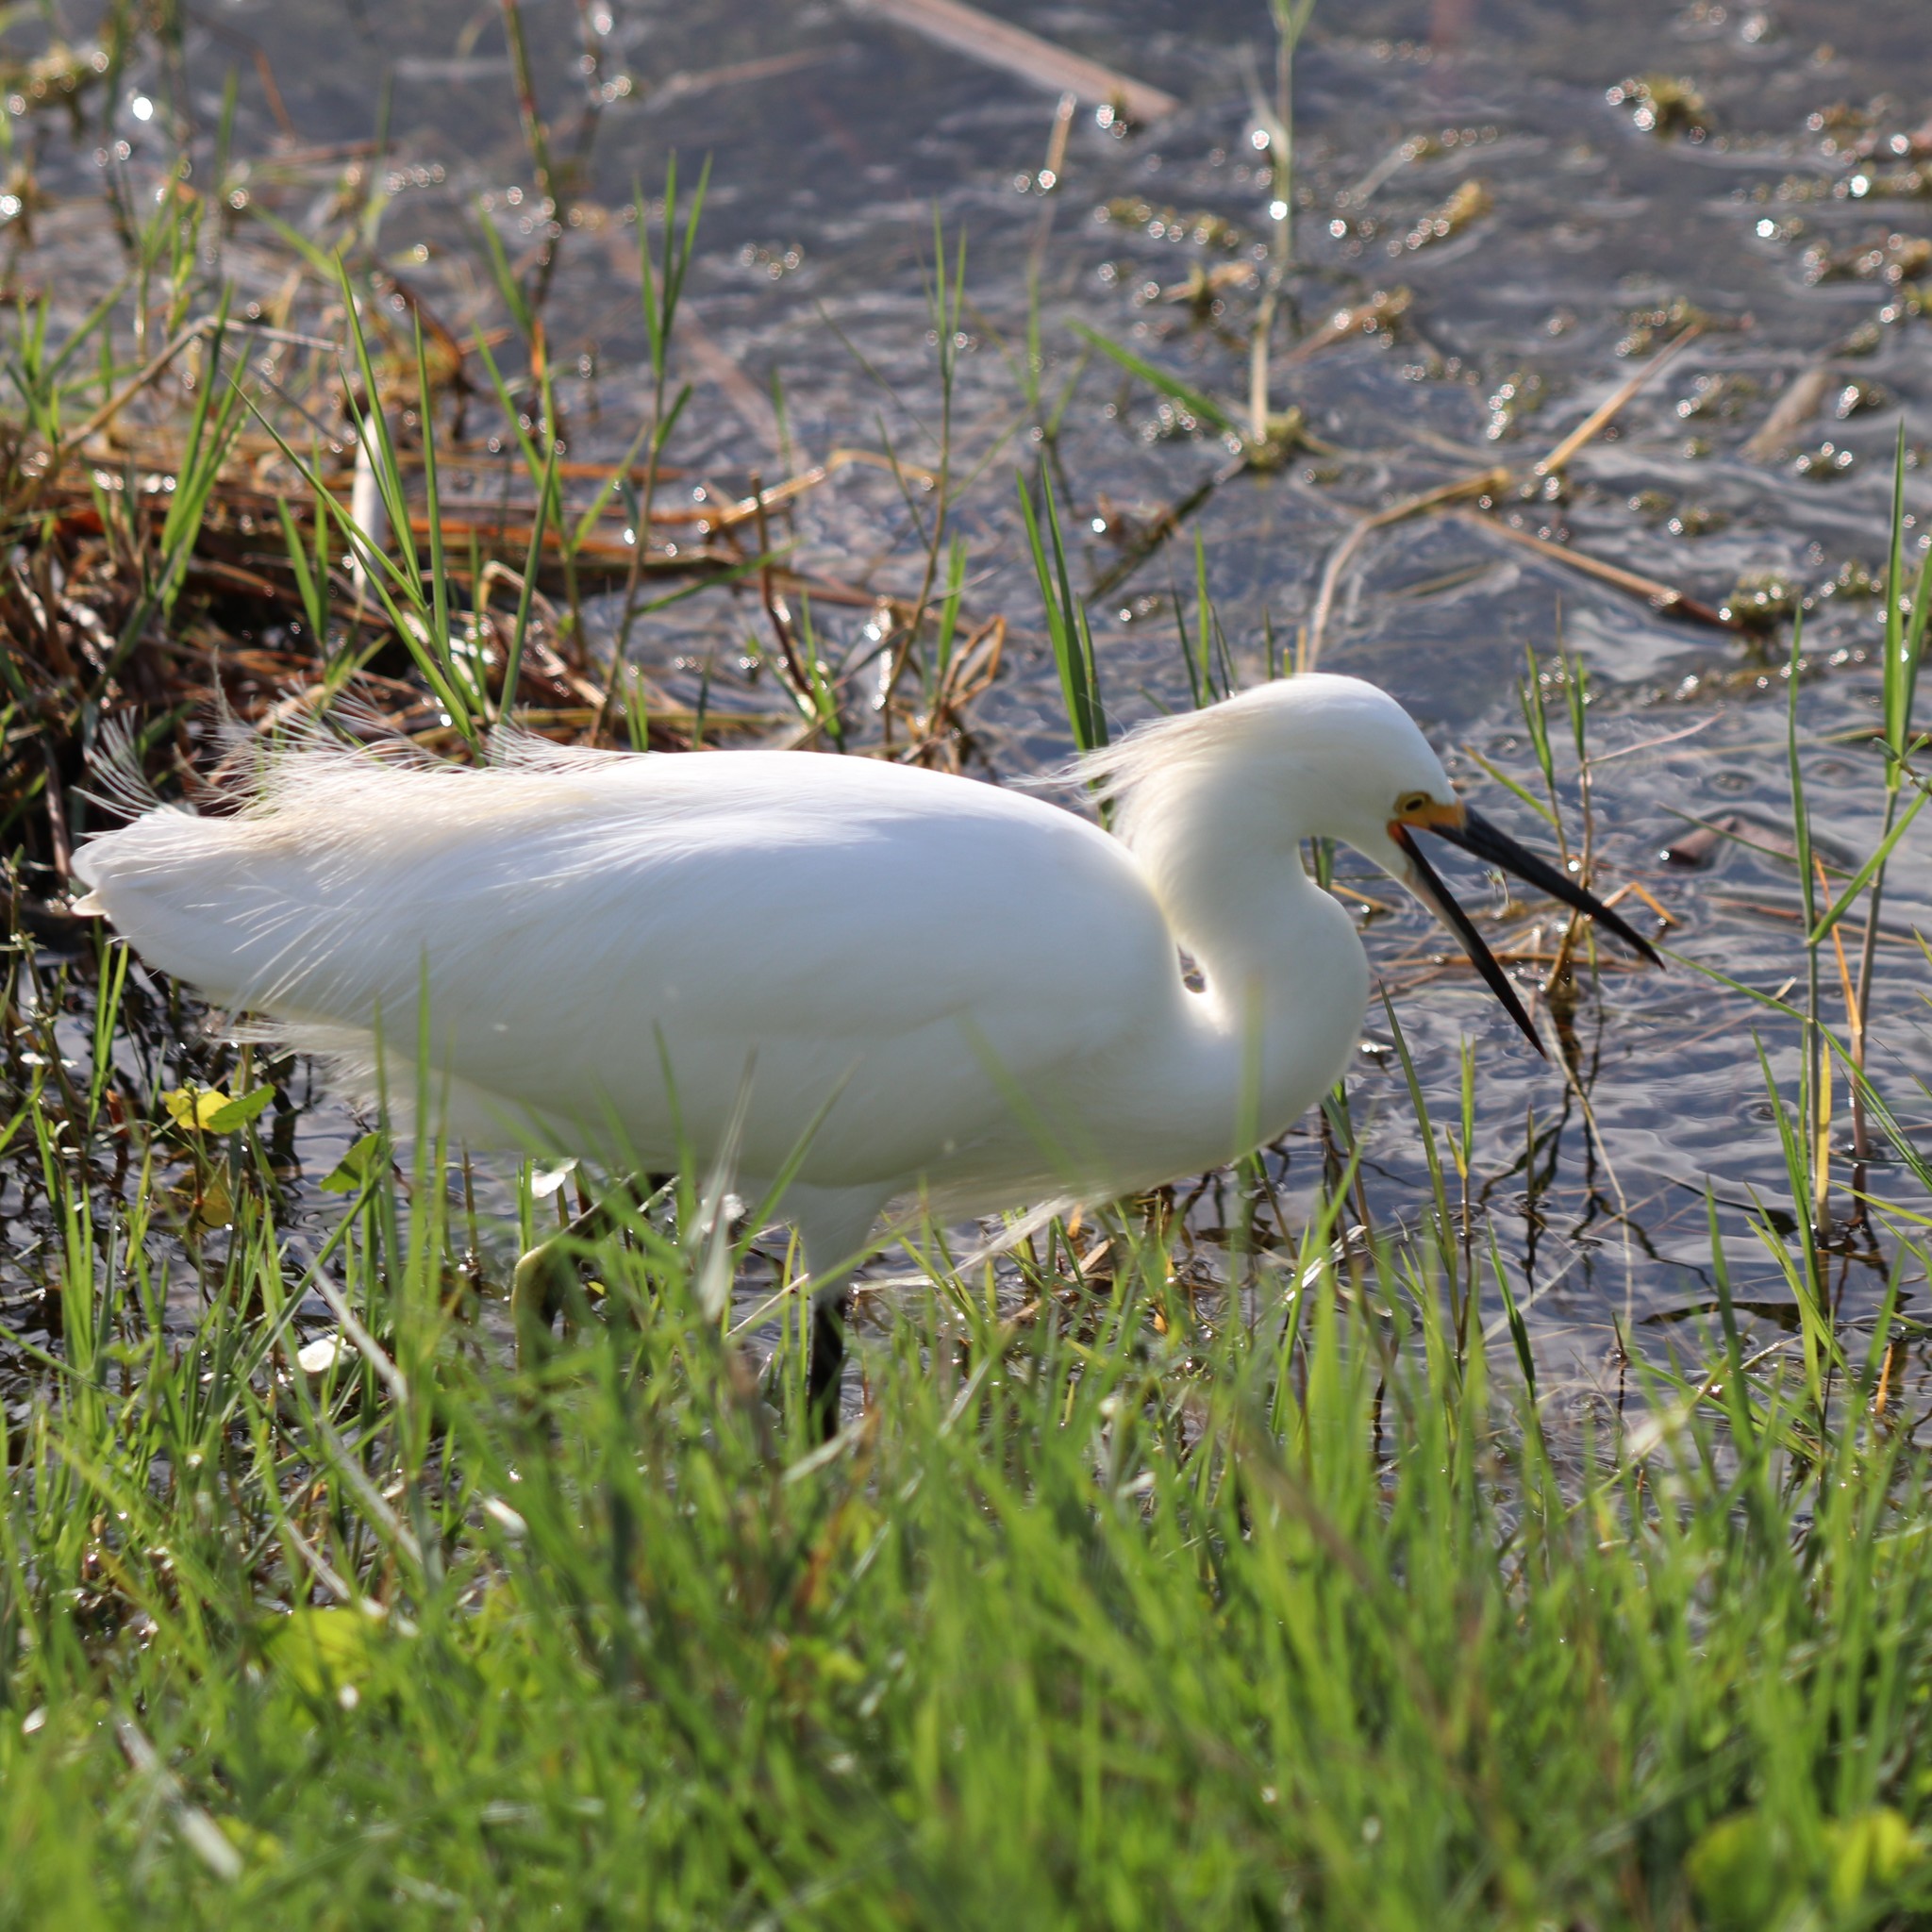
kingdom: Animalia
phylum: Chordata
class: Aves
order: Pelecaniformes
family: Ardeidae
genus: Egretta
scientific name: Egretta thula
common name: Snowy egret
